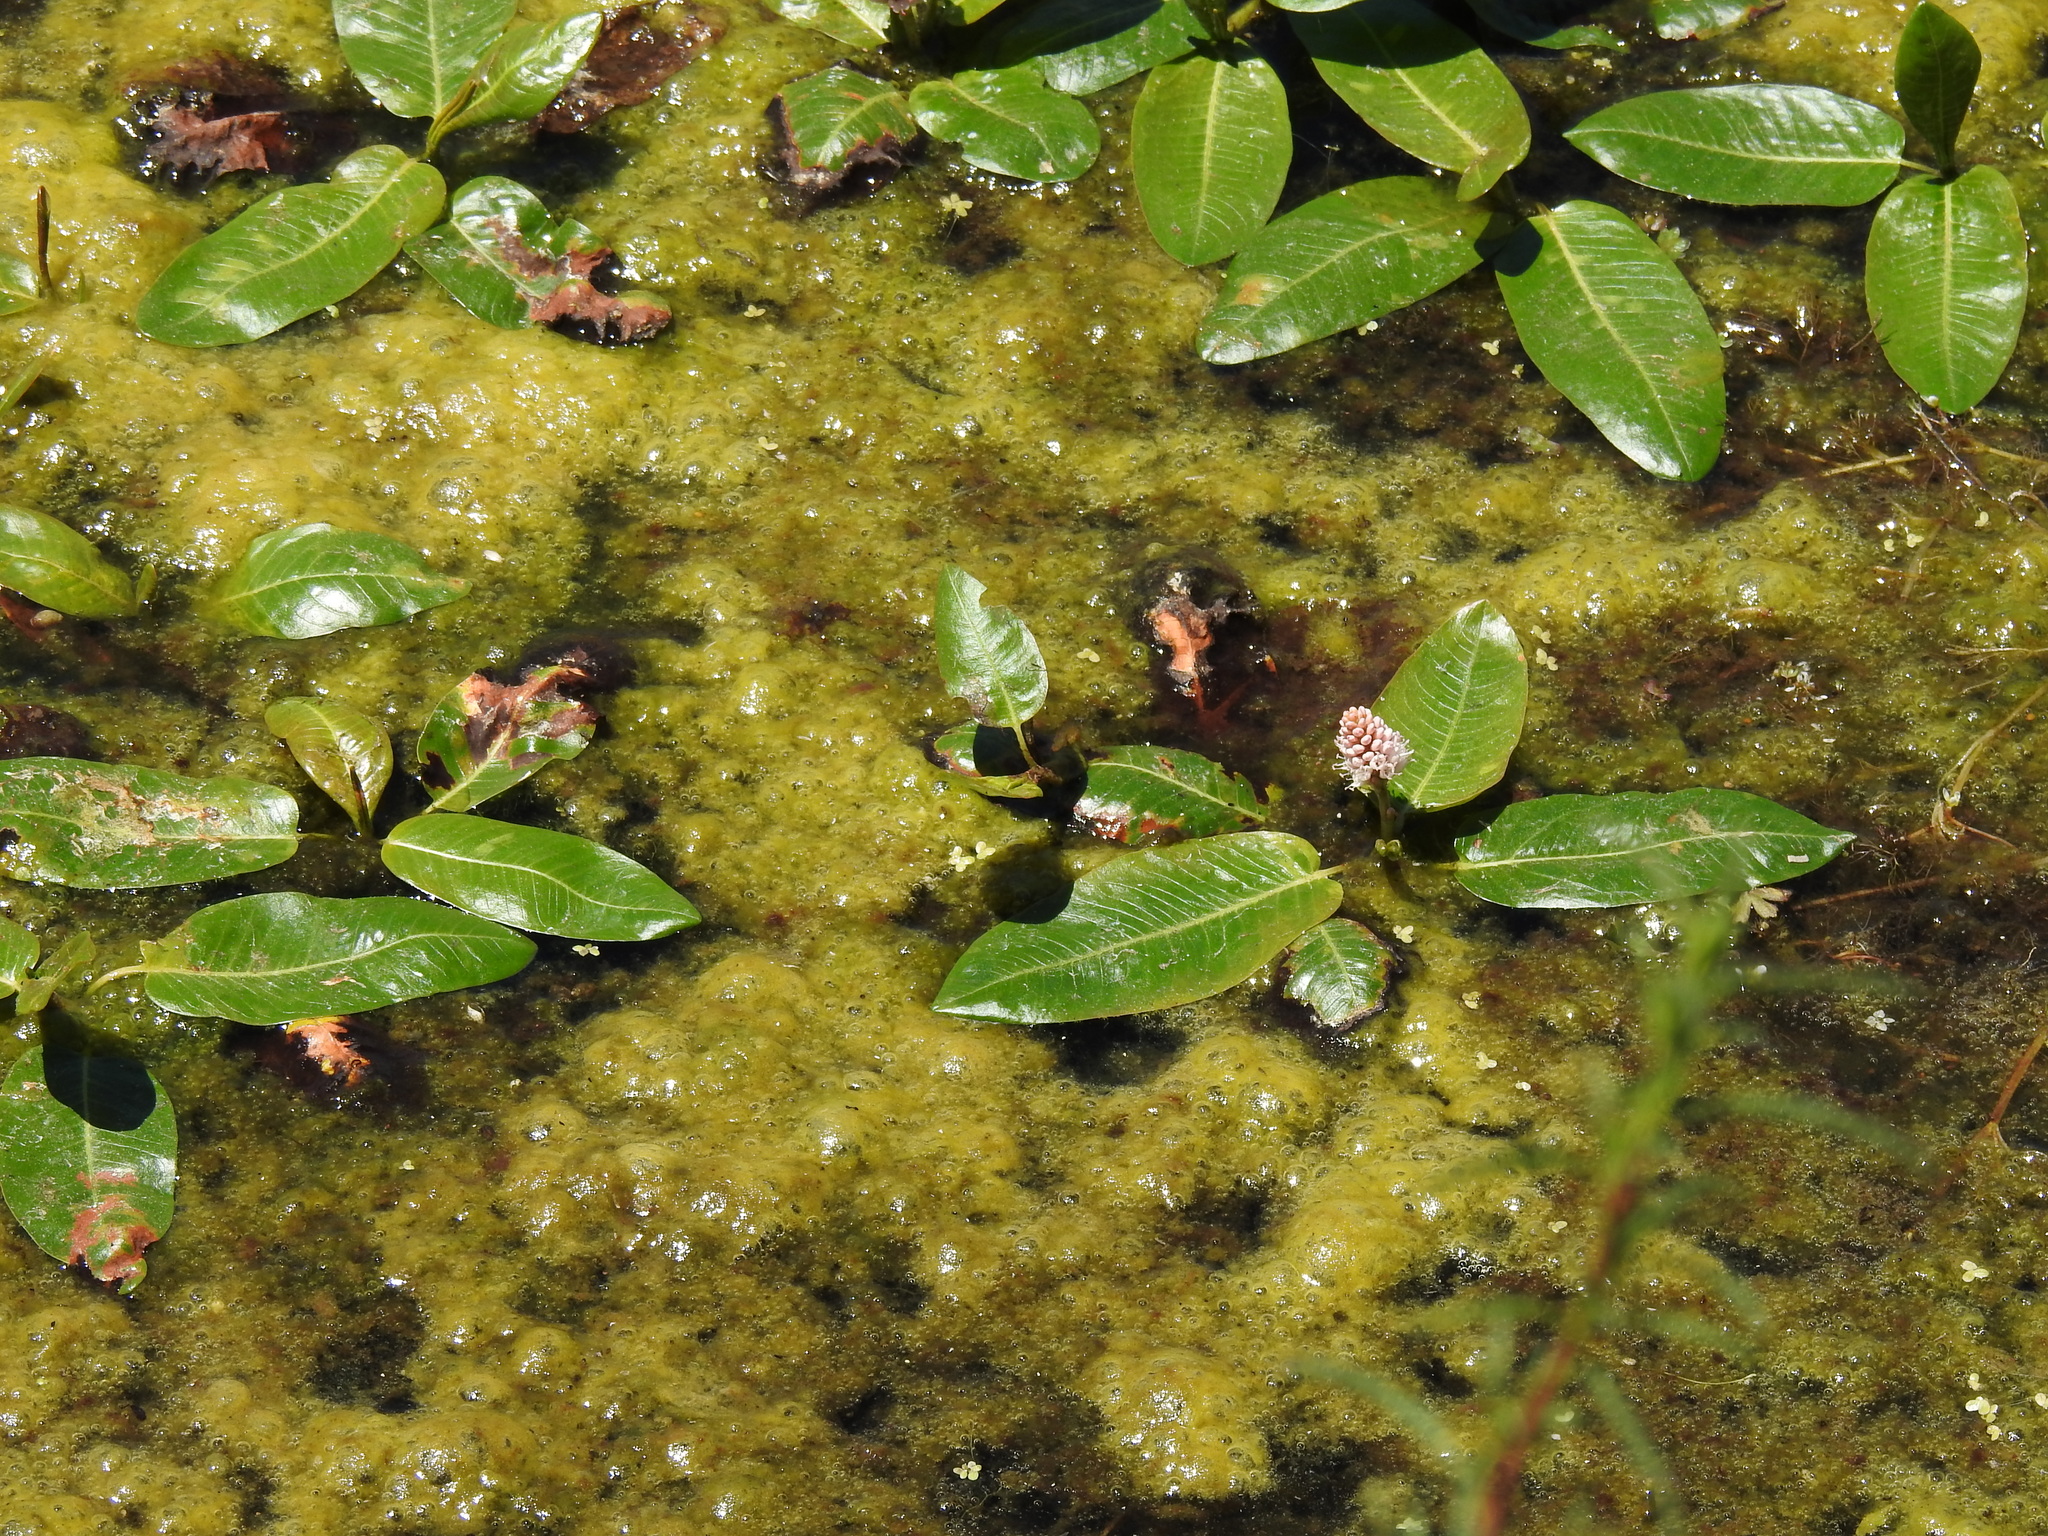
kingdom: Plantae
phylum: Tracheophyta
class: Magnoliopsida
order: Caryophyllales
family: Polygonaceae
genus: Persicaria
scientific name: Persicaria amphibia
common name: Amphibious bistort
